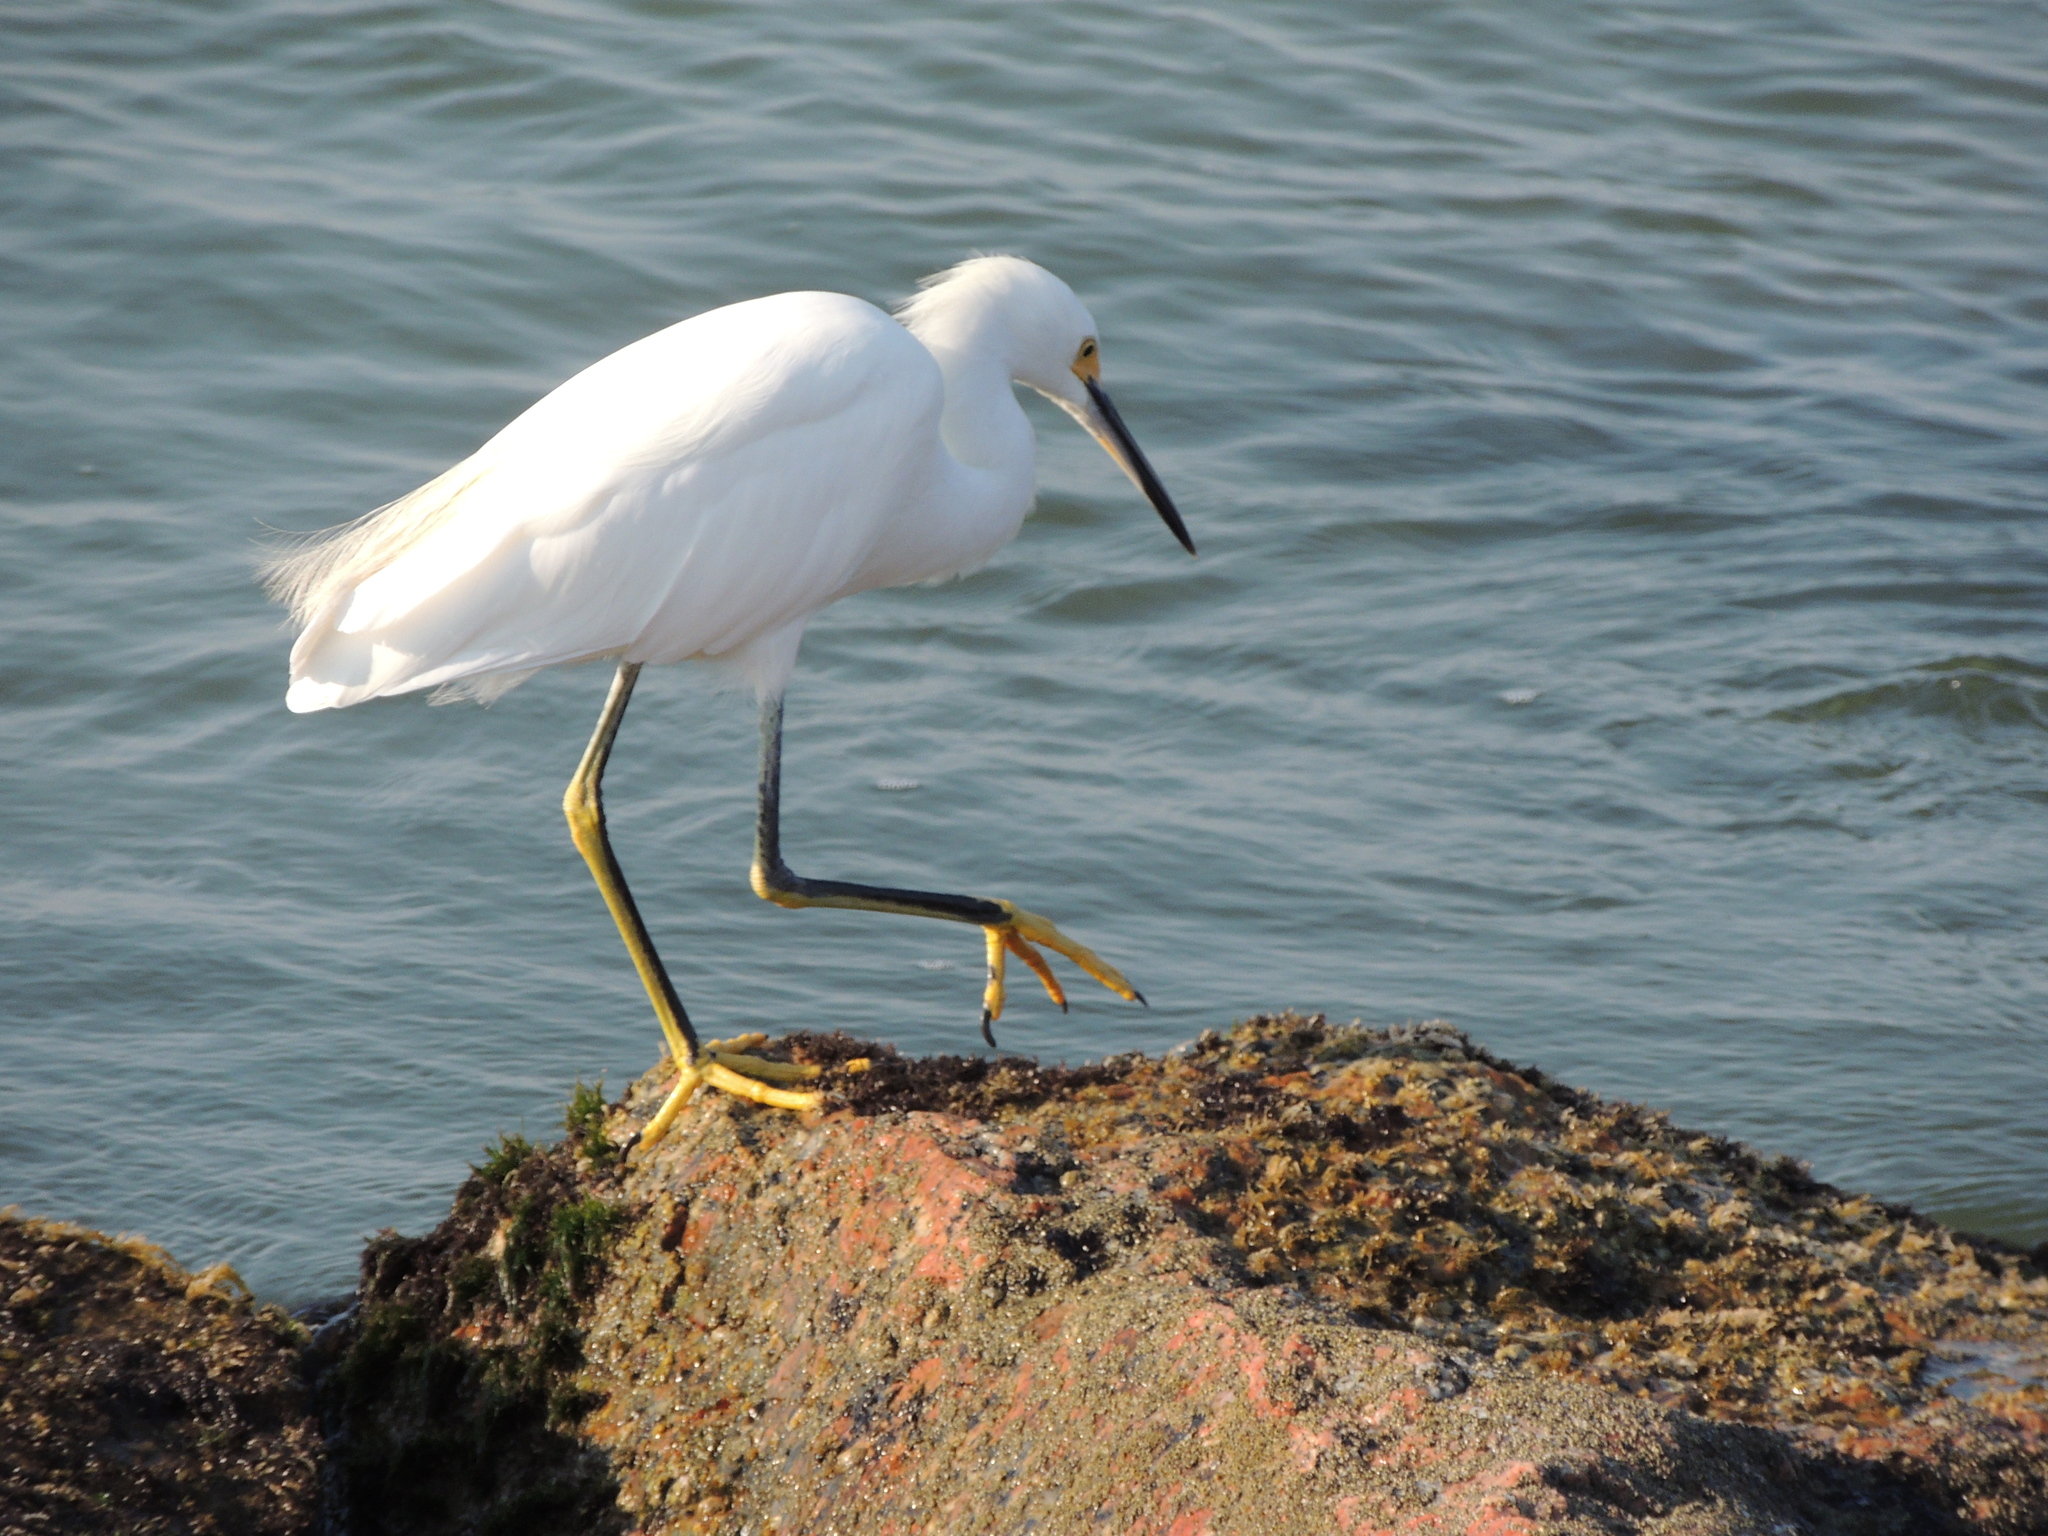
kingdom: Animalia
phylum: Chordata
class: Aves
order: Pelecaniformes
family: Ardeidae
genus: Egretta
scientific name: Egretta thula
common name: Snowy egret
